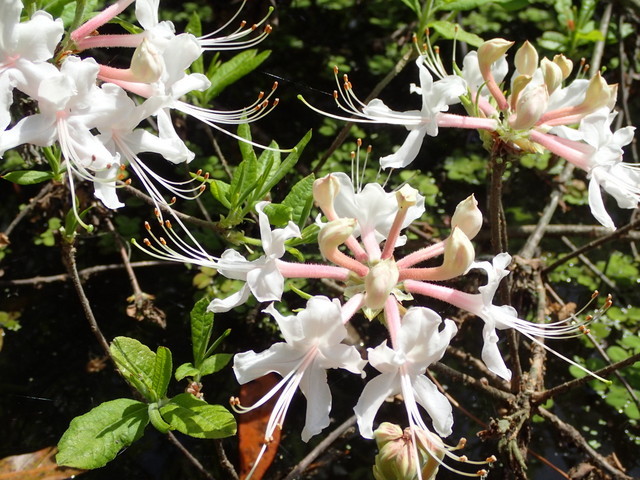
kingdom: Plantae
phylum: Tracheophyta
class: Magnoliopsida
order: Ericales
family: Ericaceae
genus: Rhododendron
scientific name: Rhododendron canescens
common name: Mountain azalea
